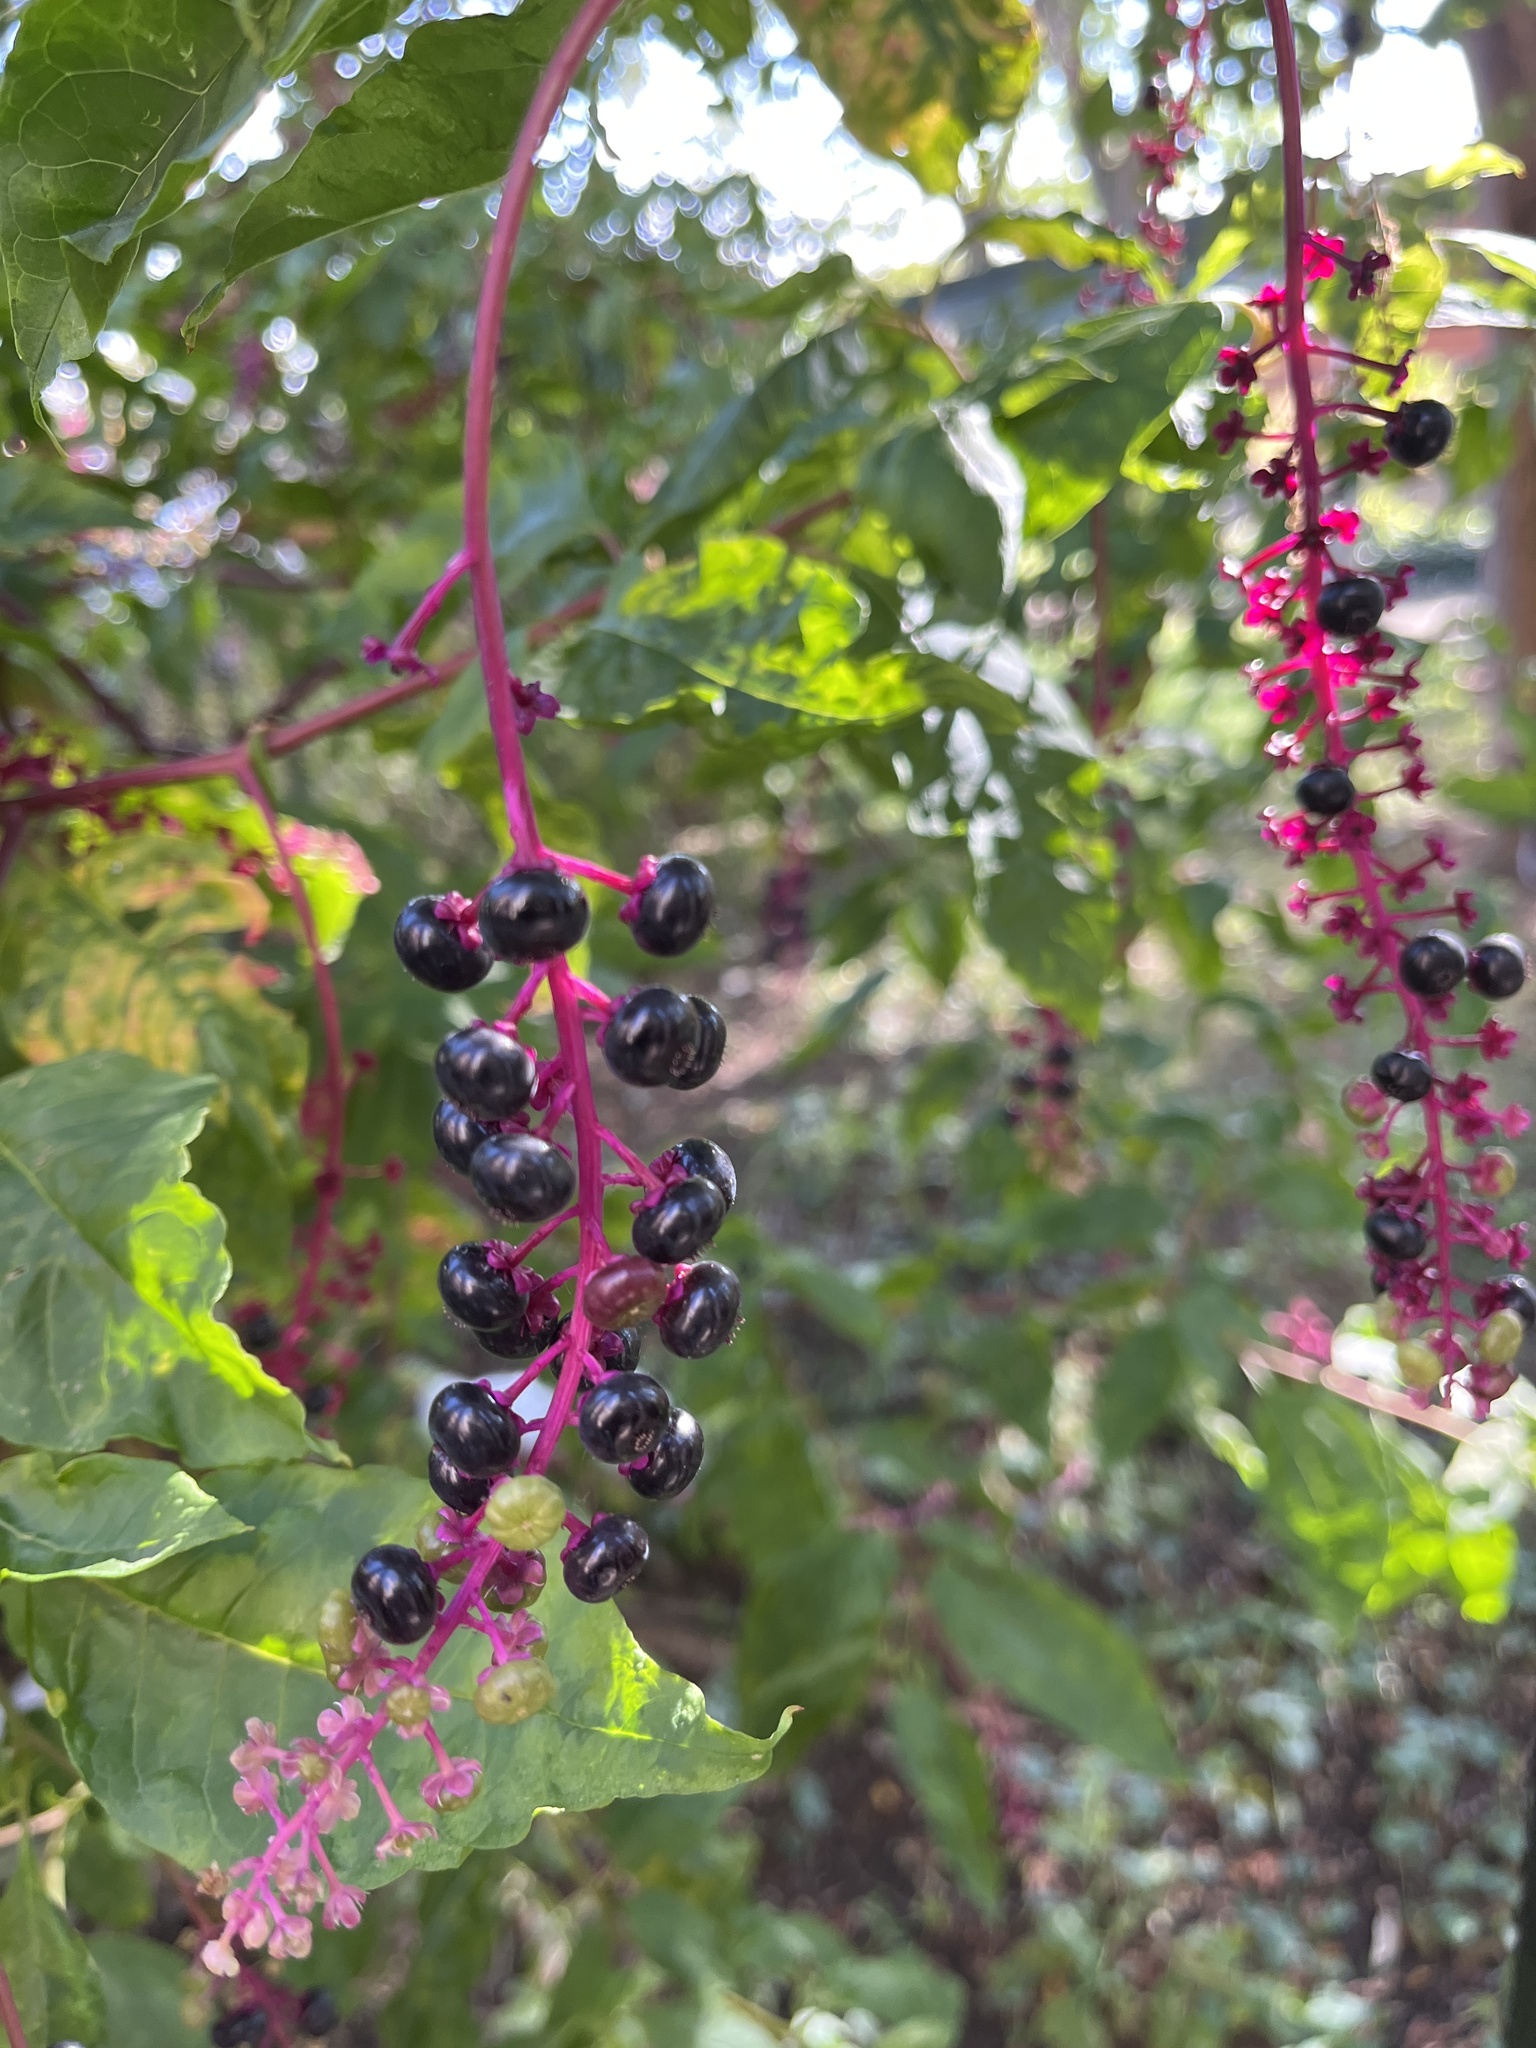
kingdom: Plantae
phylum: Tracheophyta
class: Magnoliopsida
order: Caryophyllales
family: Phytolaccaceae
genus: Phytolacca
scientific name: Phytolacca americana
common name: American pokeweed
